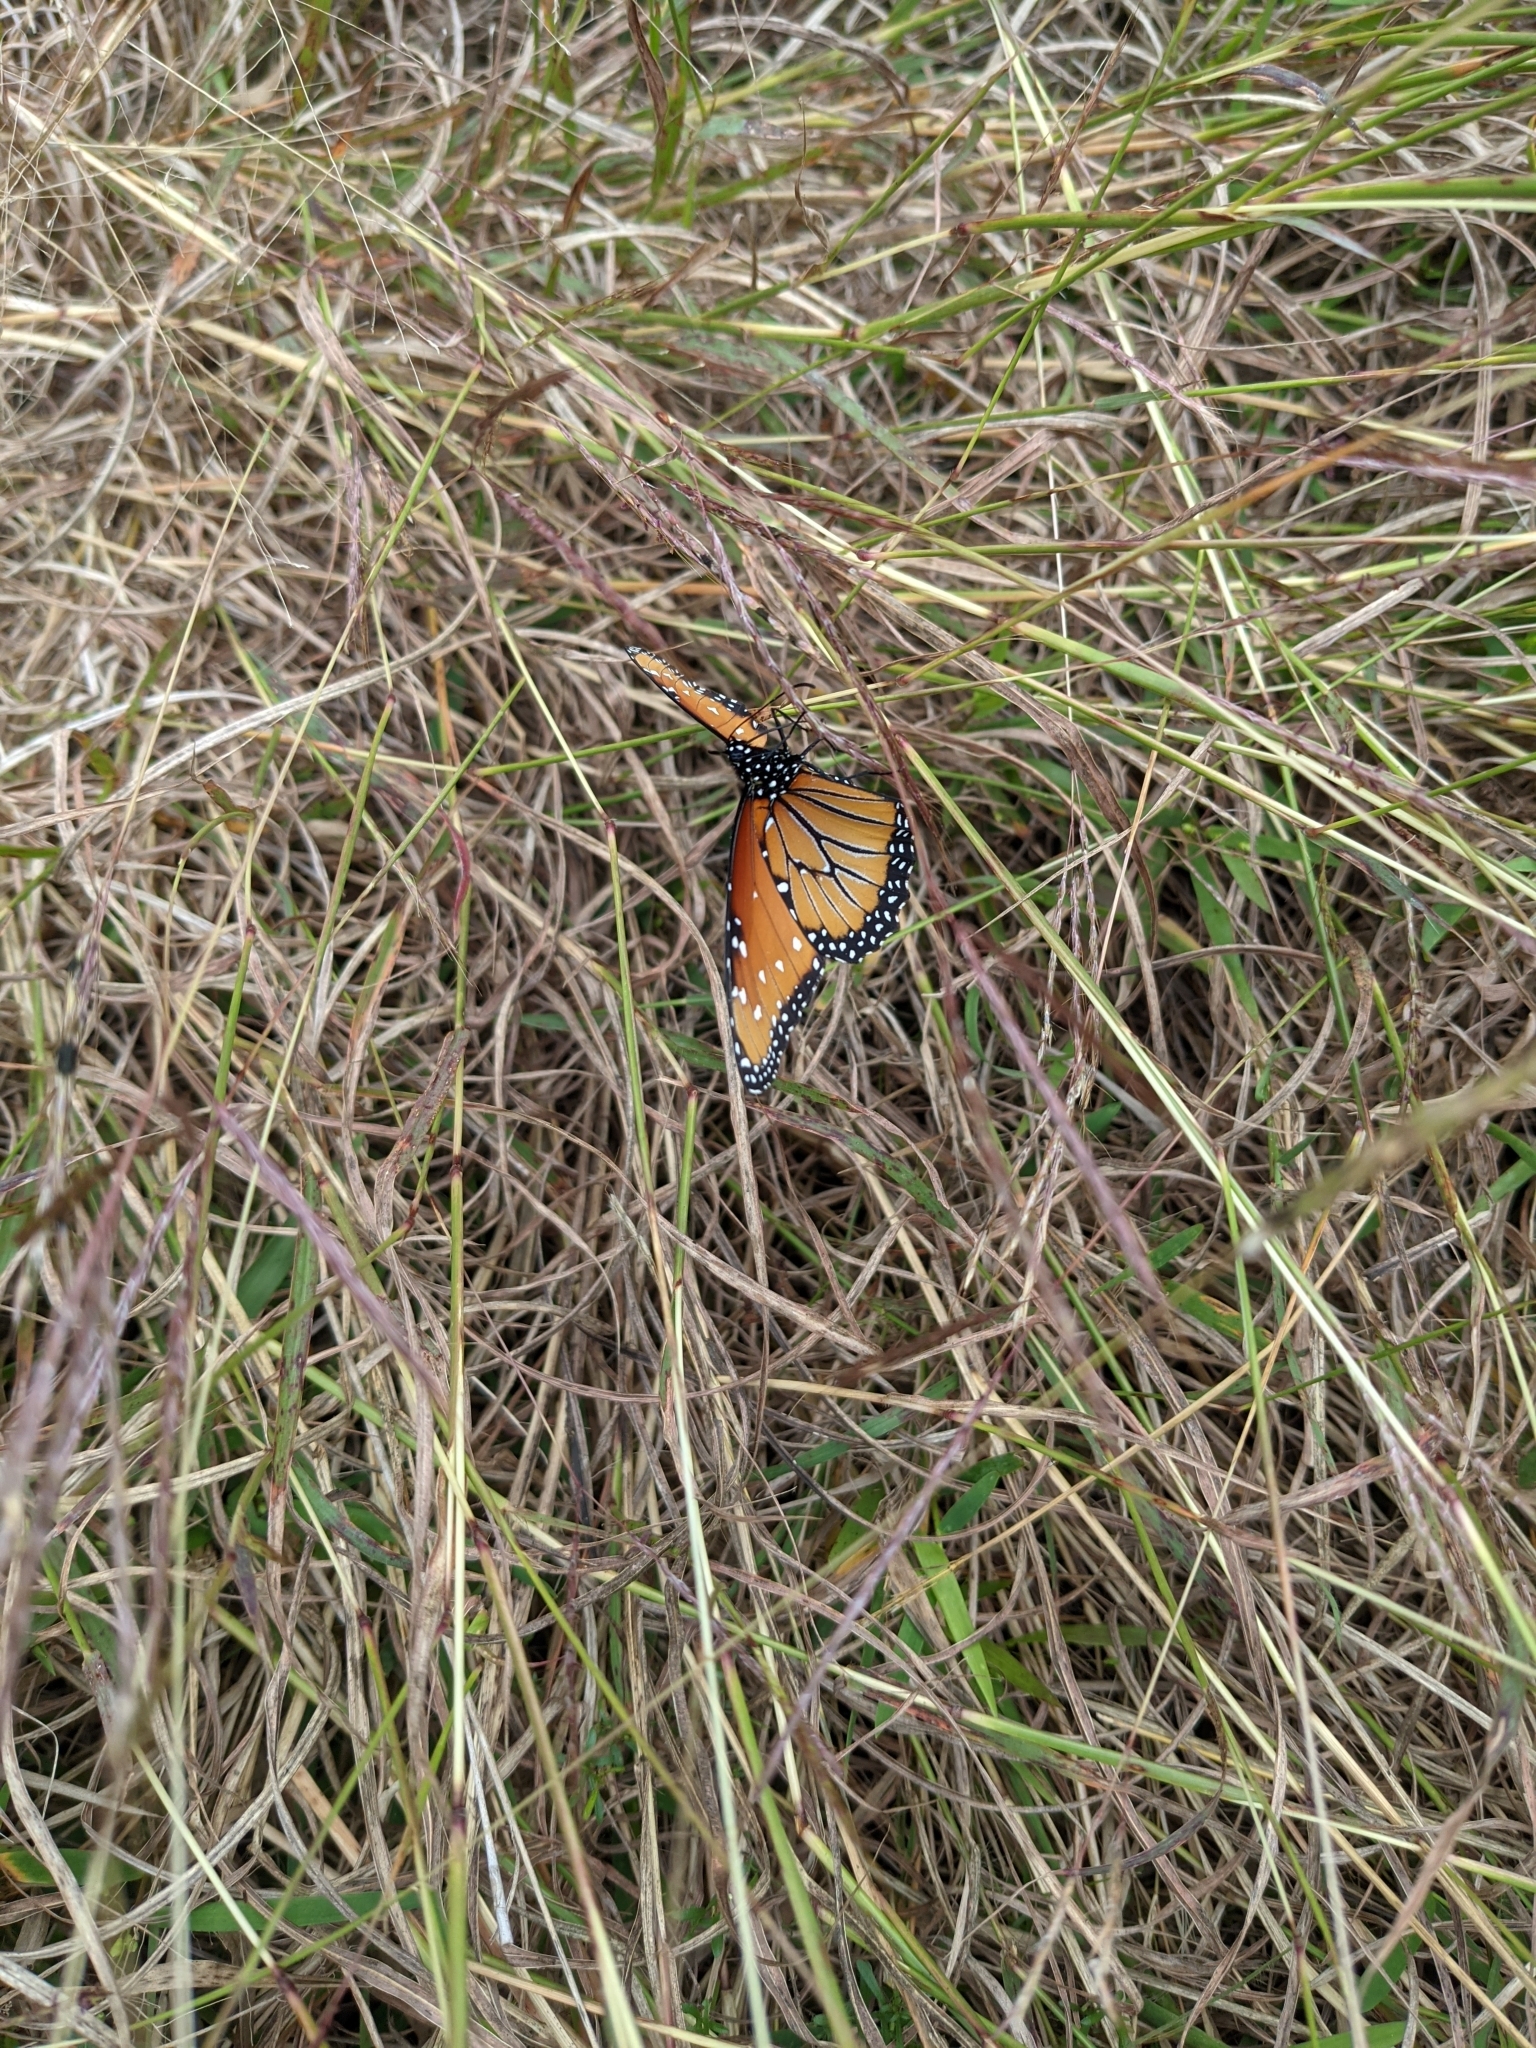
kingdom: Animalia
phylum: Arthropoda
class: Insecta
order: Lepidoptera
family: Nymphalidae
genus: Danaus
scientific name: Danaus gilippus
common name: Queen
